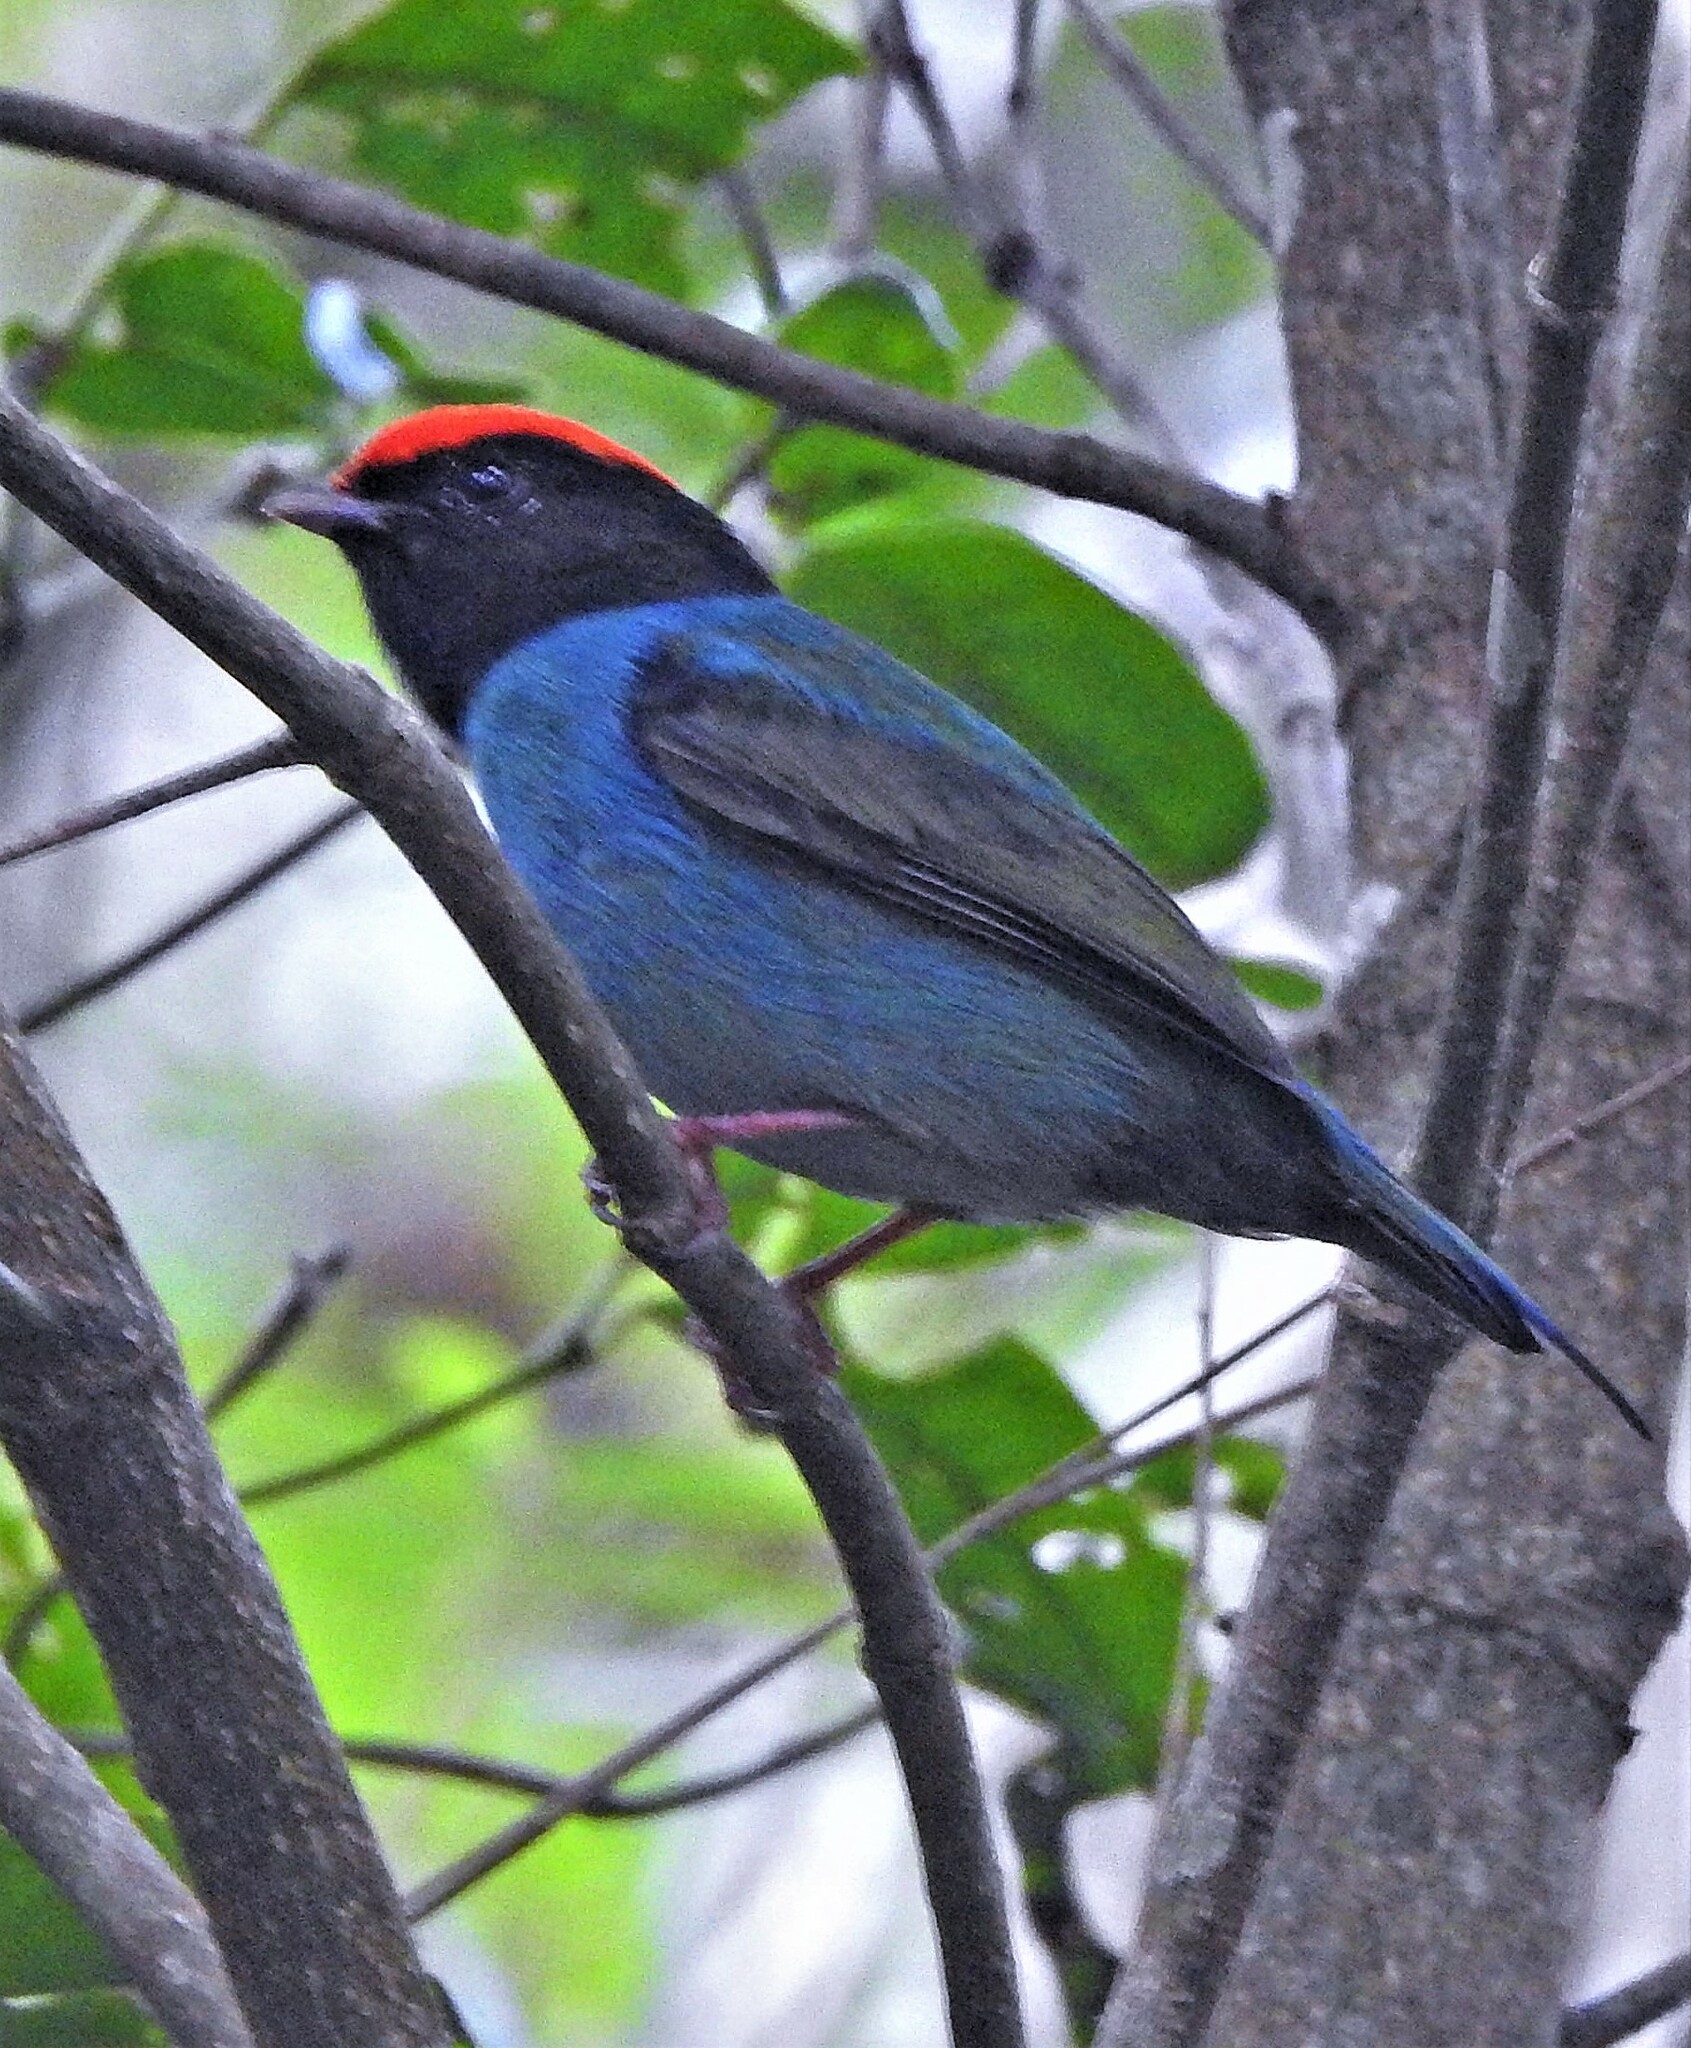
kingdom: Animalia
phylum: Chordata
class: Aves
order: Passeriformes
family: Pipridae
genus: Chiroxiphia
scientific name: Chiroxiphia caudata
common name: Blue manakin
